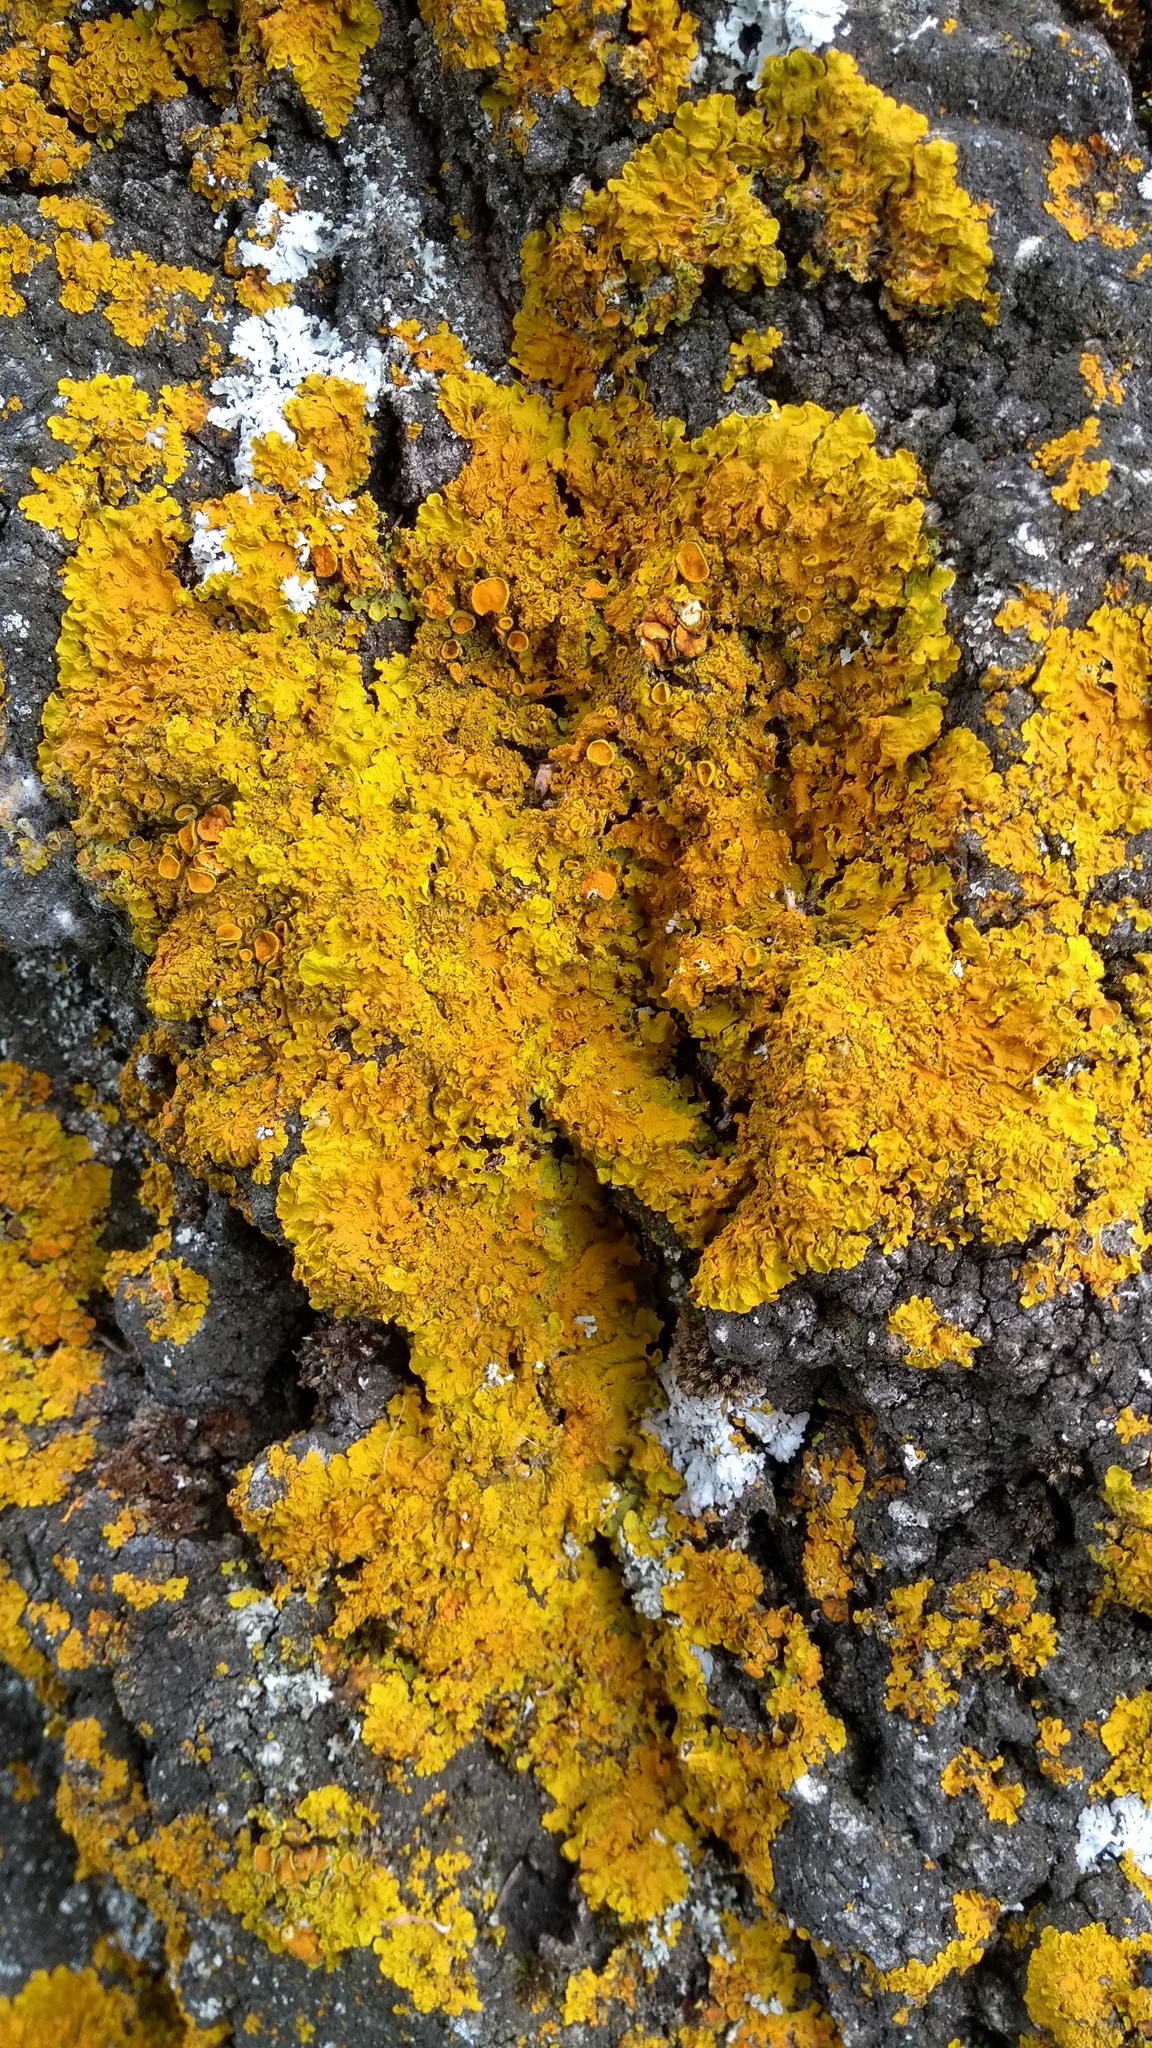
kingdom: Fungi
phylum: Ascomycota
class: Lecanoromycetes
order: Teloschistales
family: Teloschistaceae
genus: Xanthoria
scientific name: Xanthoria parietina
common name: Common orange lichen
